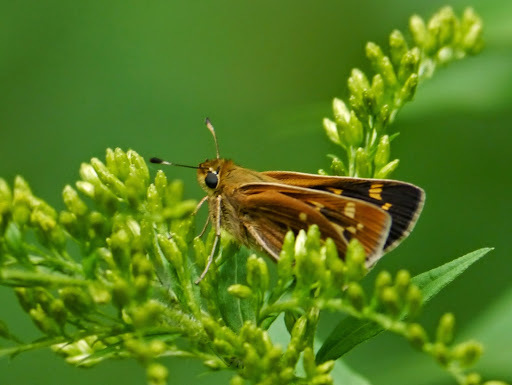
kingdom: Animalia
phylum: Arthropoda
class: Insecta
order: Lepidoptera
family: Hesperiidae
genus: Hesperia
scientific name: Hesperia leonardus
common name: Leonard's skipper
